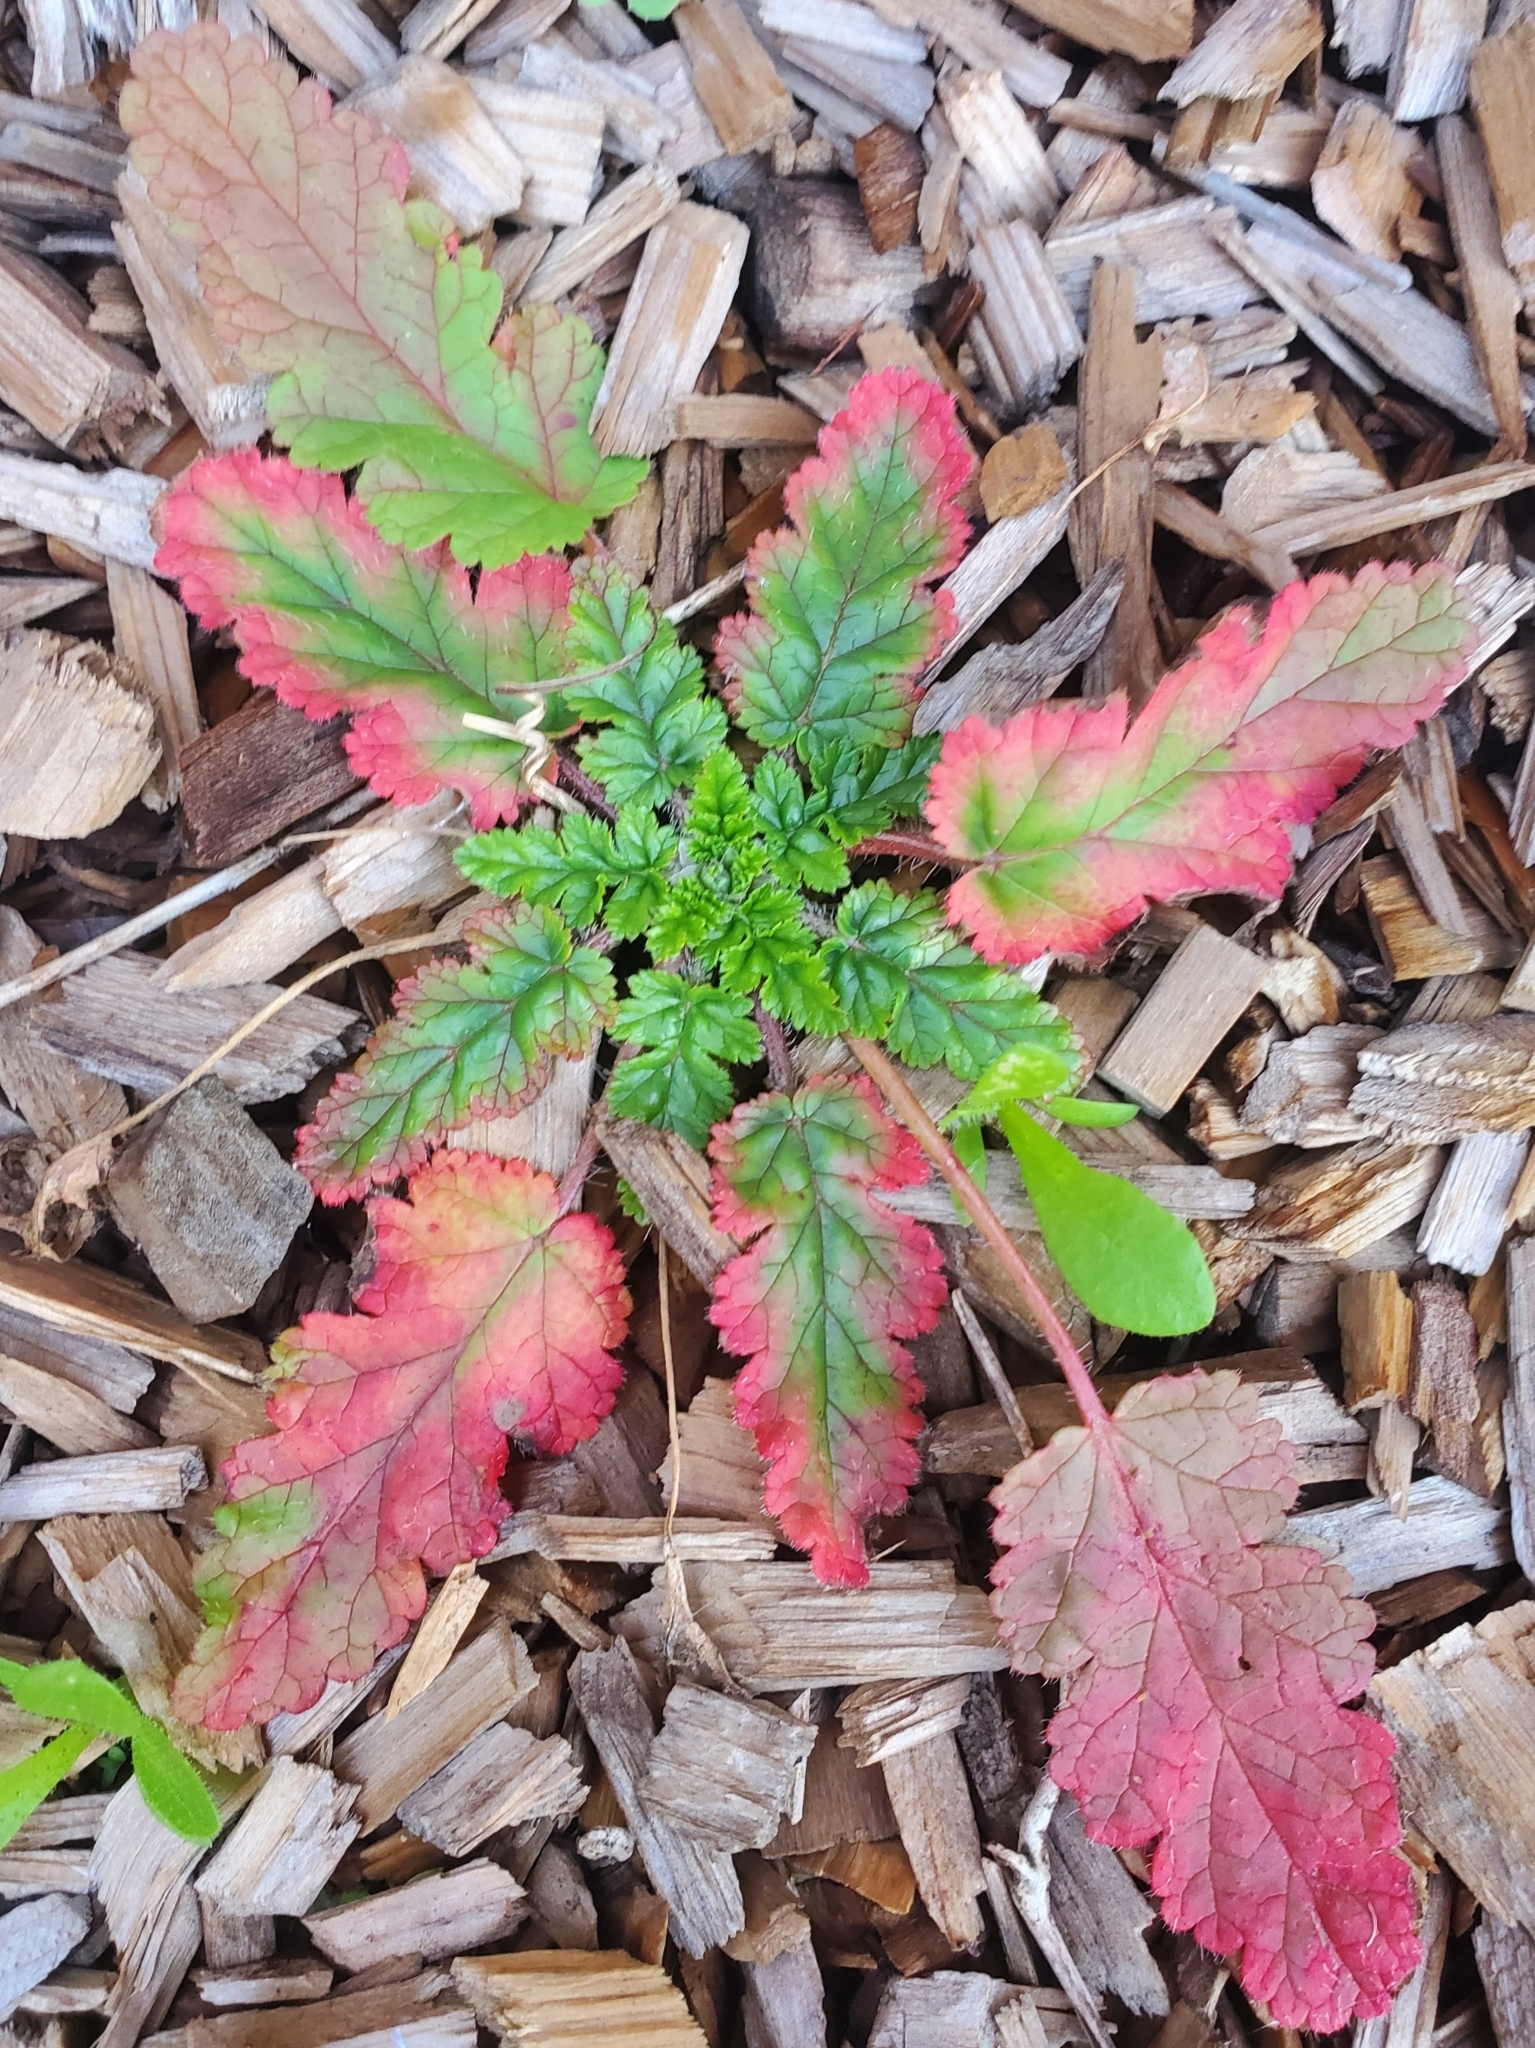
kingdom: Plantae
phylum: Tracheophyta
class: Magnoliopsida
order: Geraniales
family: Geraniaceae
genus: Erodium
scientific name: Erodium
